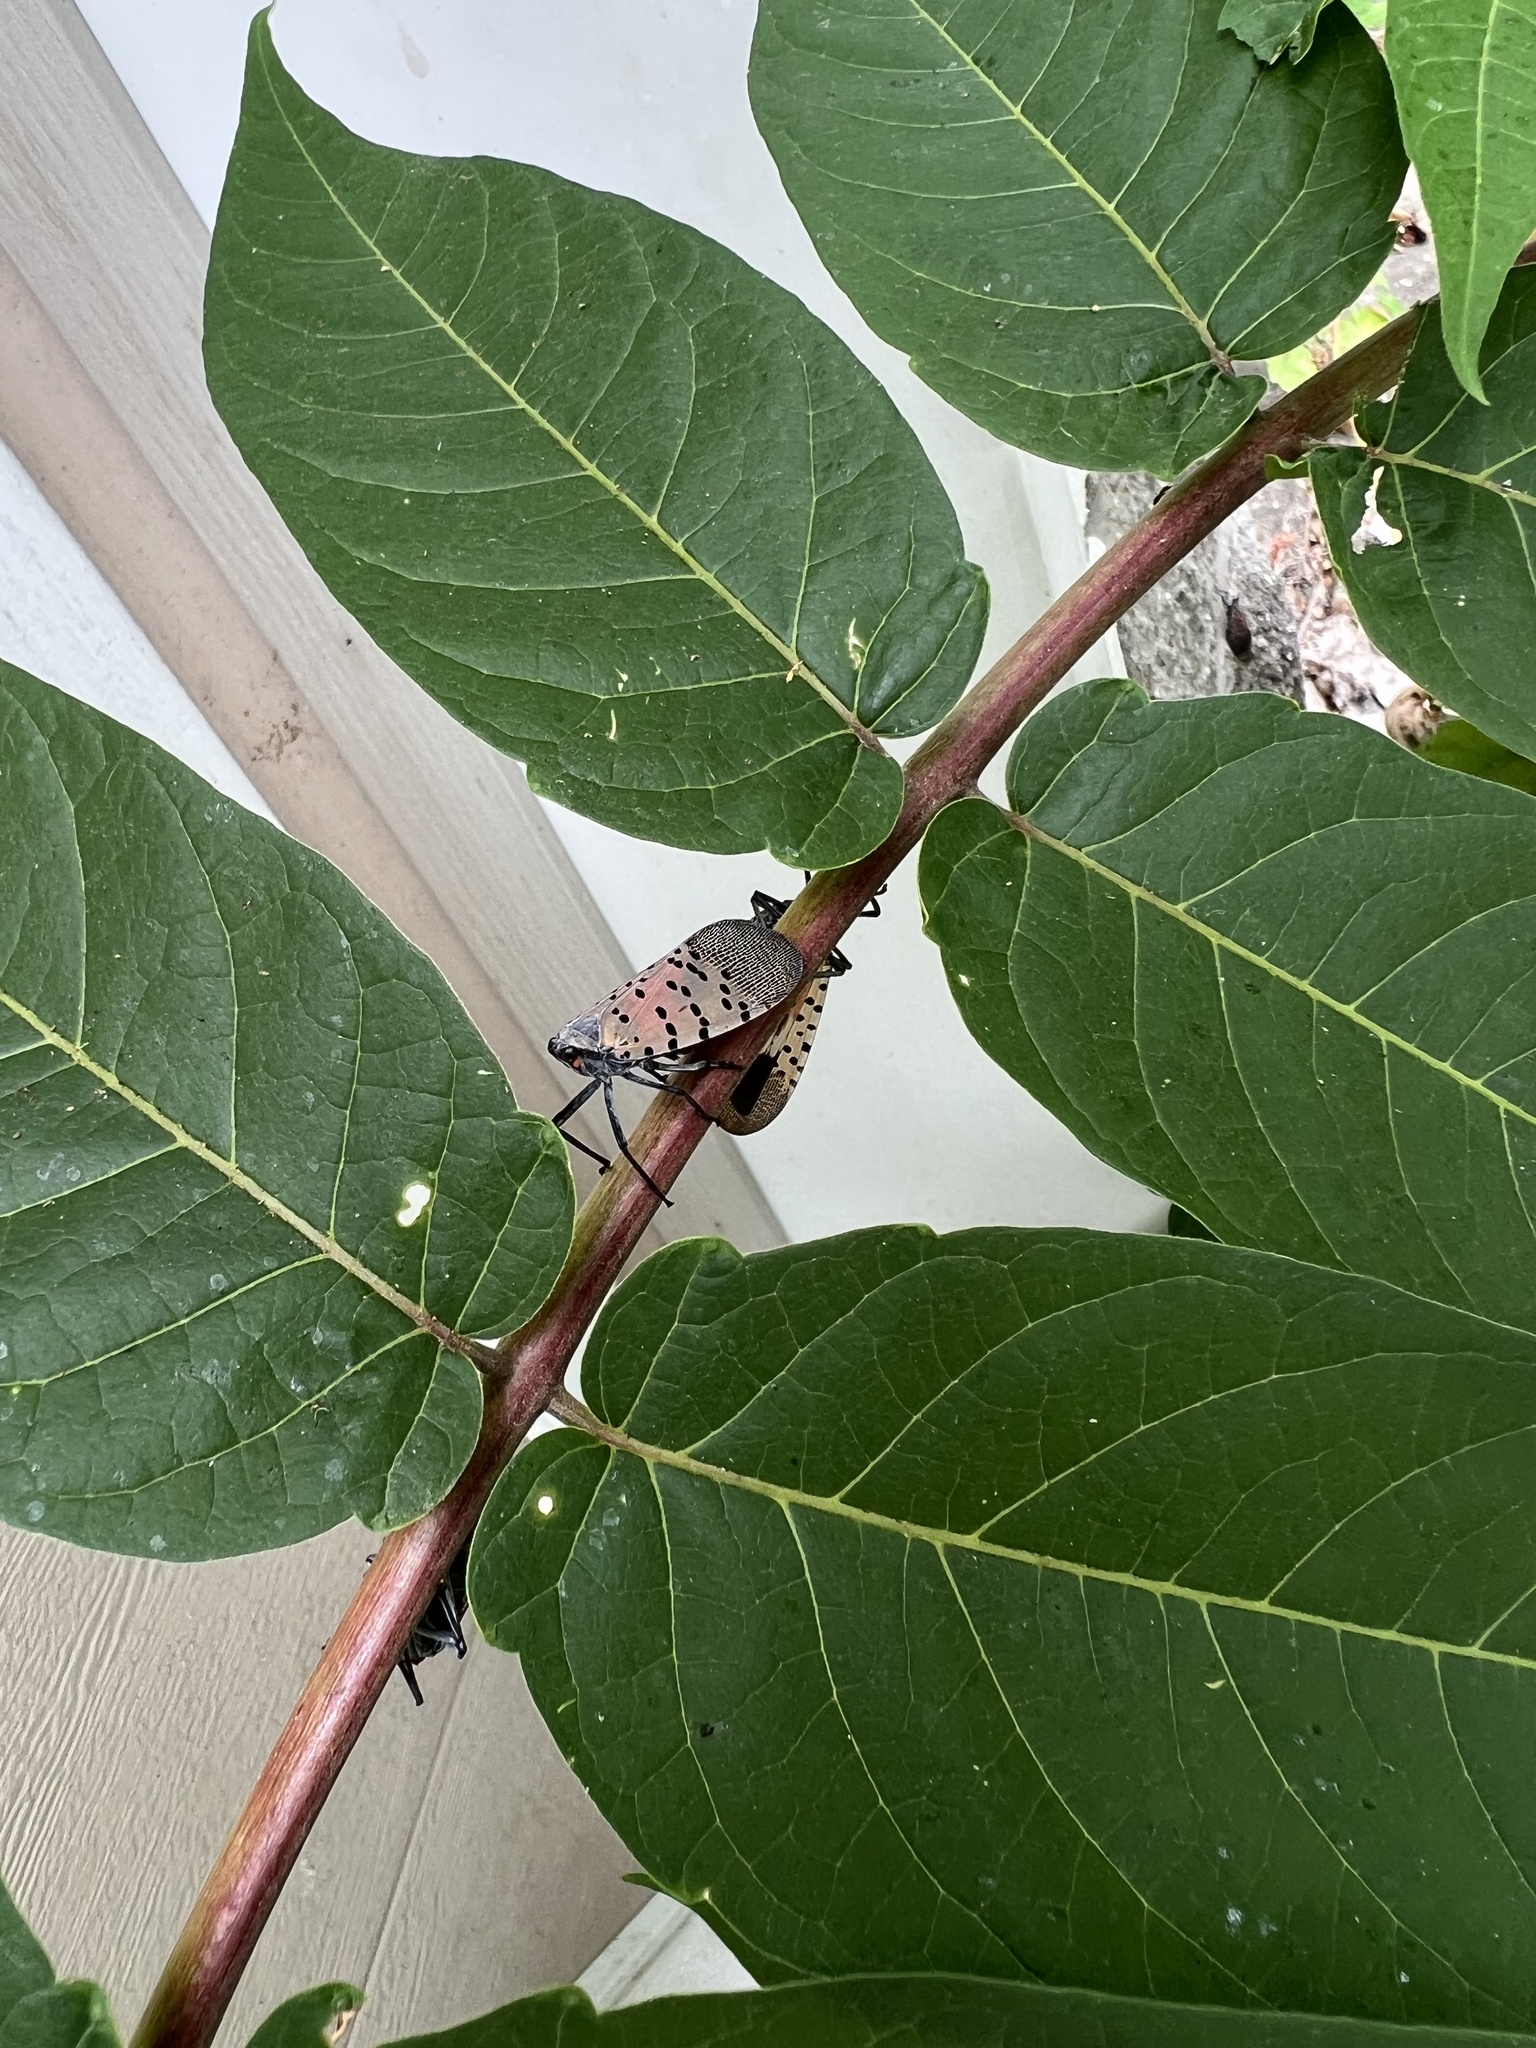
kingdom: Animalia
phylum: Arthropoda
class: Insecta
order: Hemiptera
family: Fulgoridae
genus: Lycorma
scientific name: Lycorma delicatula
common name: Spotted lanternfly
